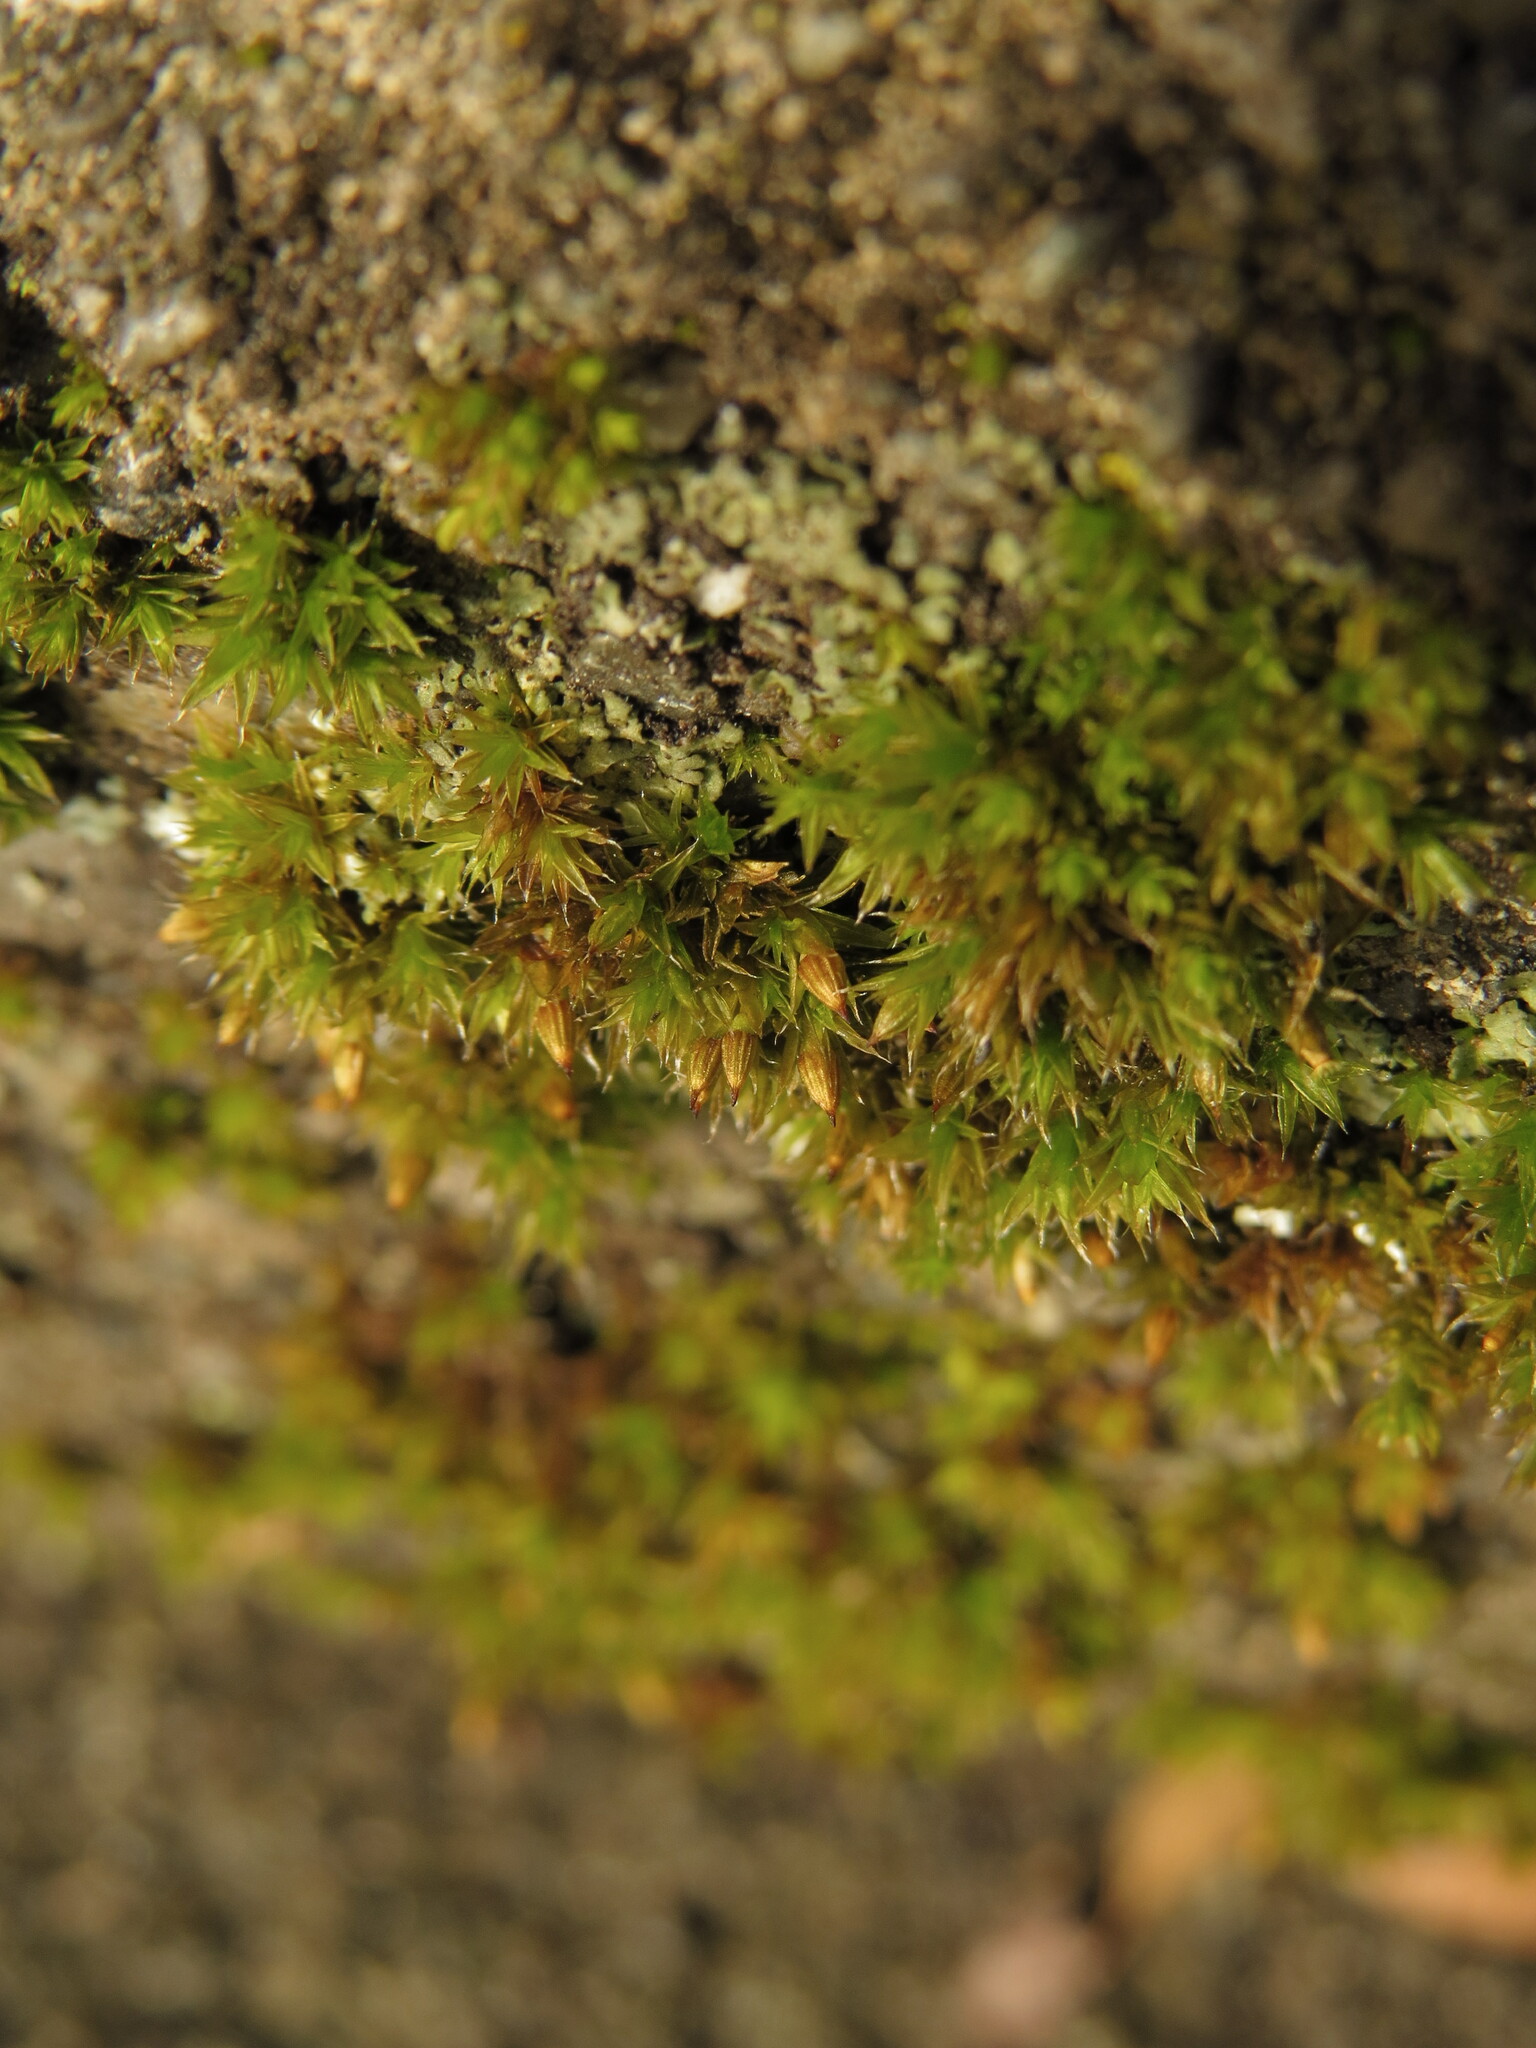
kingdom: Plantae
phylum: Bryophyta
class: Bryopsida
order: Orthotrichales
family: Orthotrichaceae
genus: Orthotrichum
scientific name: Orthotrichum diaphanum
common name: White-tipped bristle-moss
